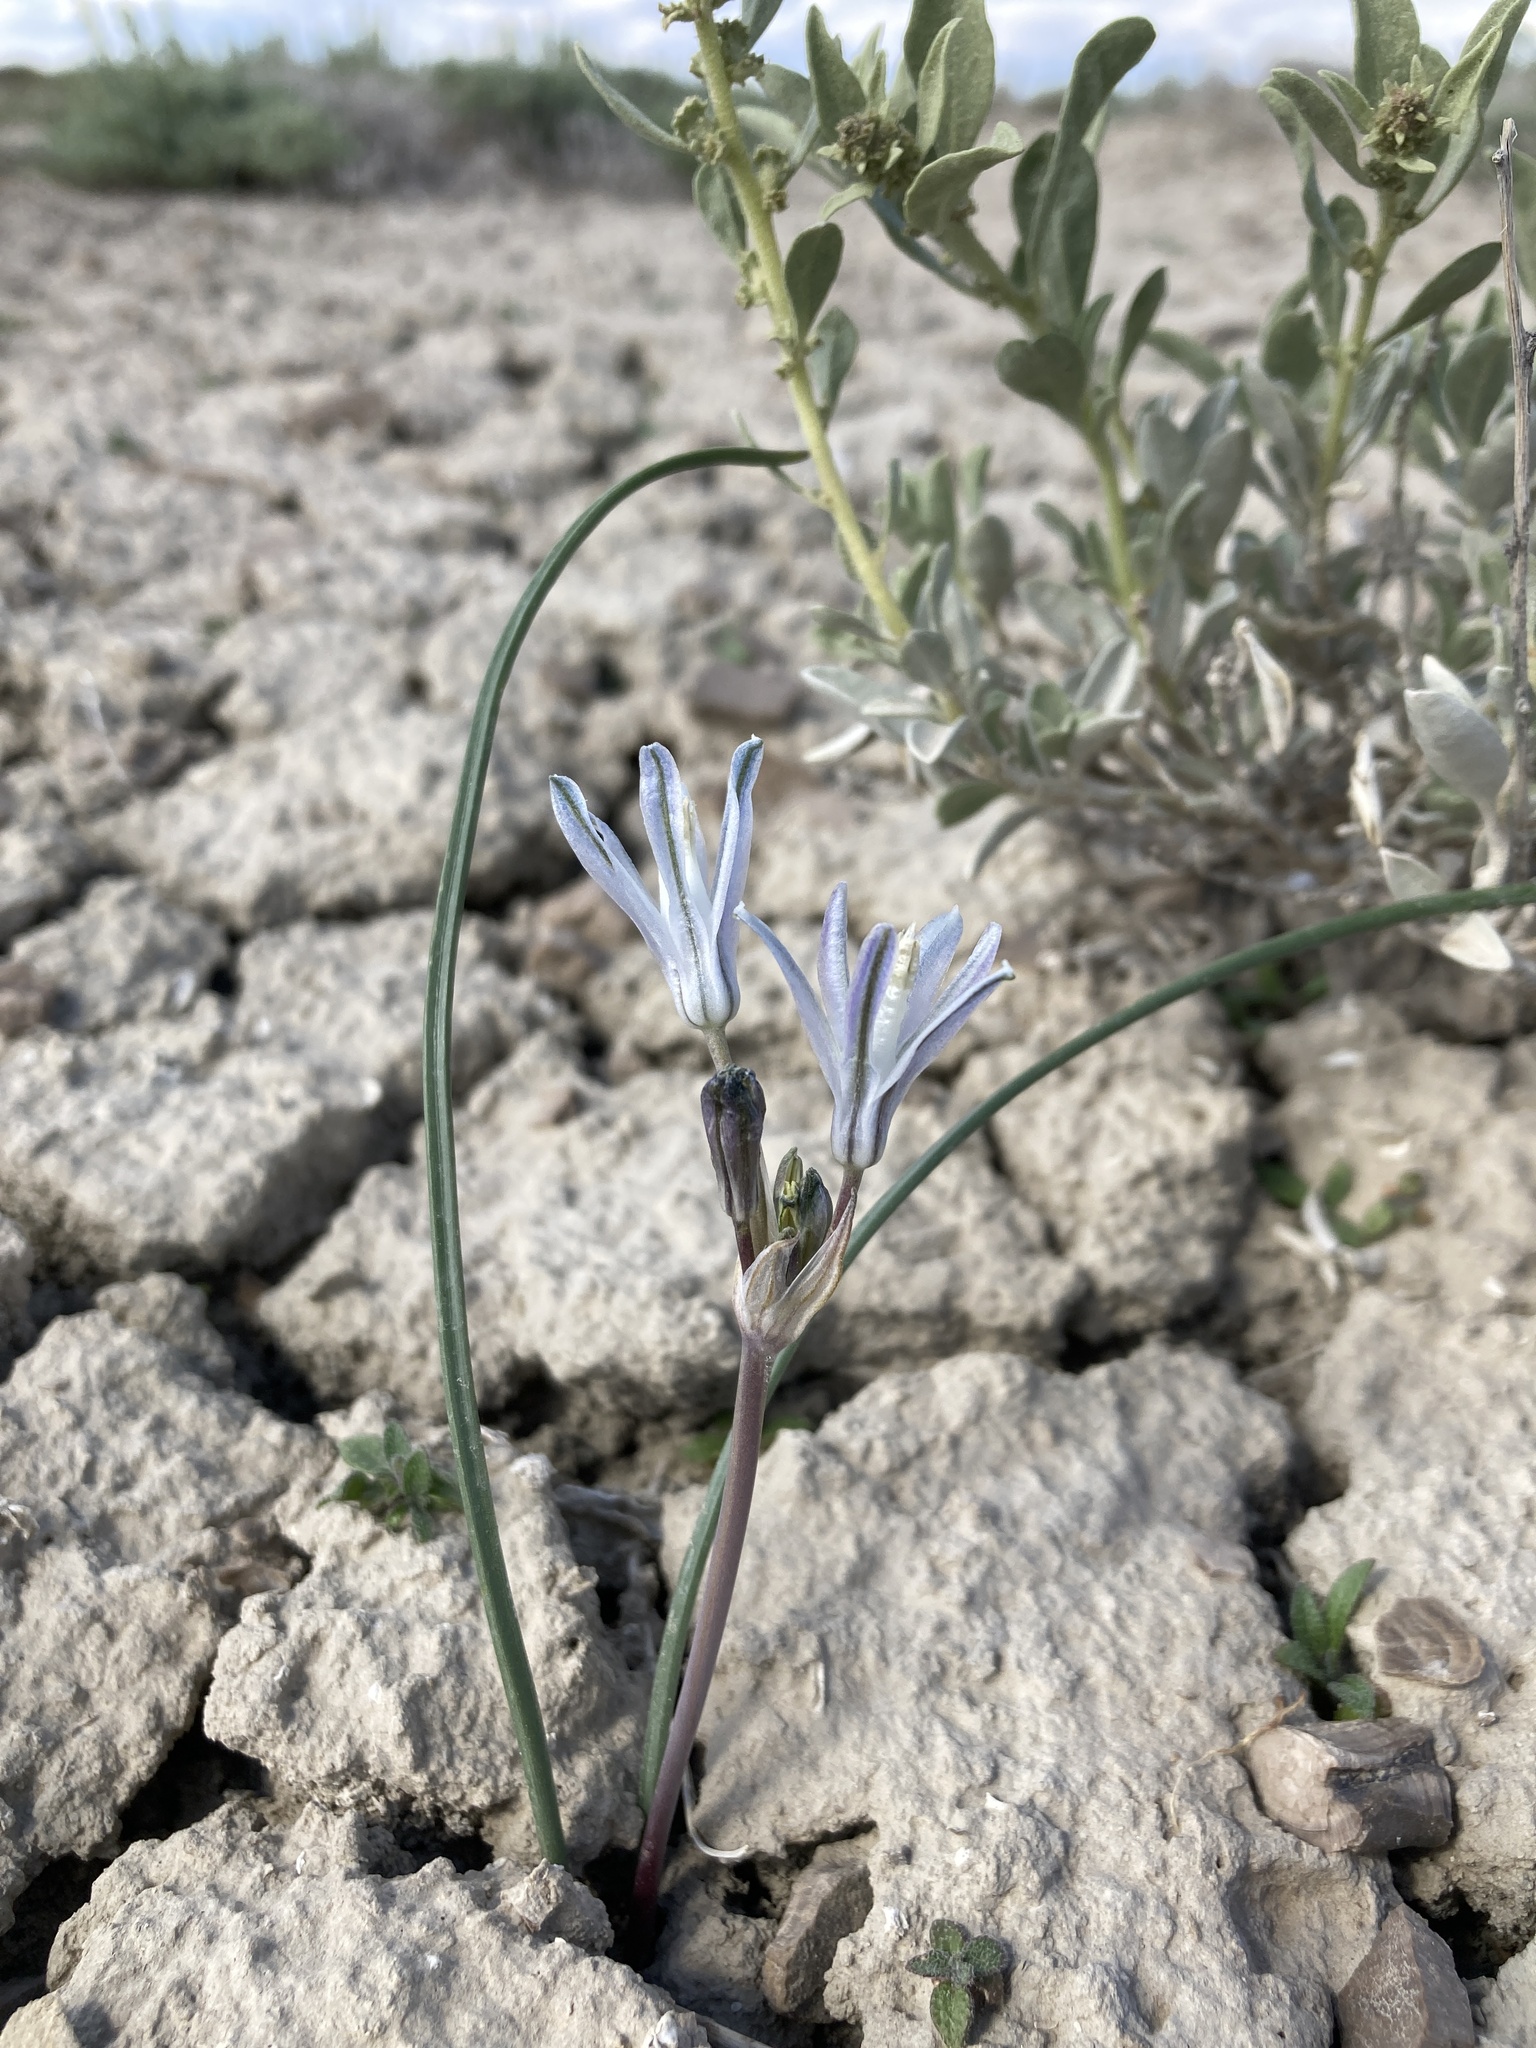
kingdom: Plantae
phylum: Tracheophyta
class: Liliopsida
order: Asparagales
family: Asparagaceae
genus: Androstephium
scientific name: Androstephium breviflorum
